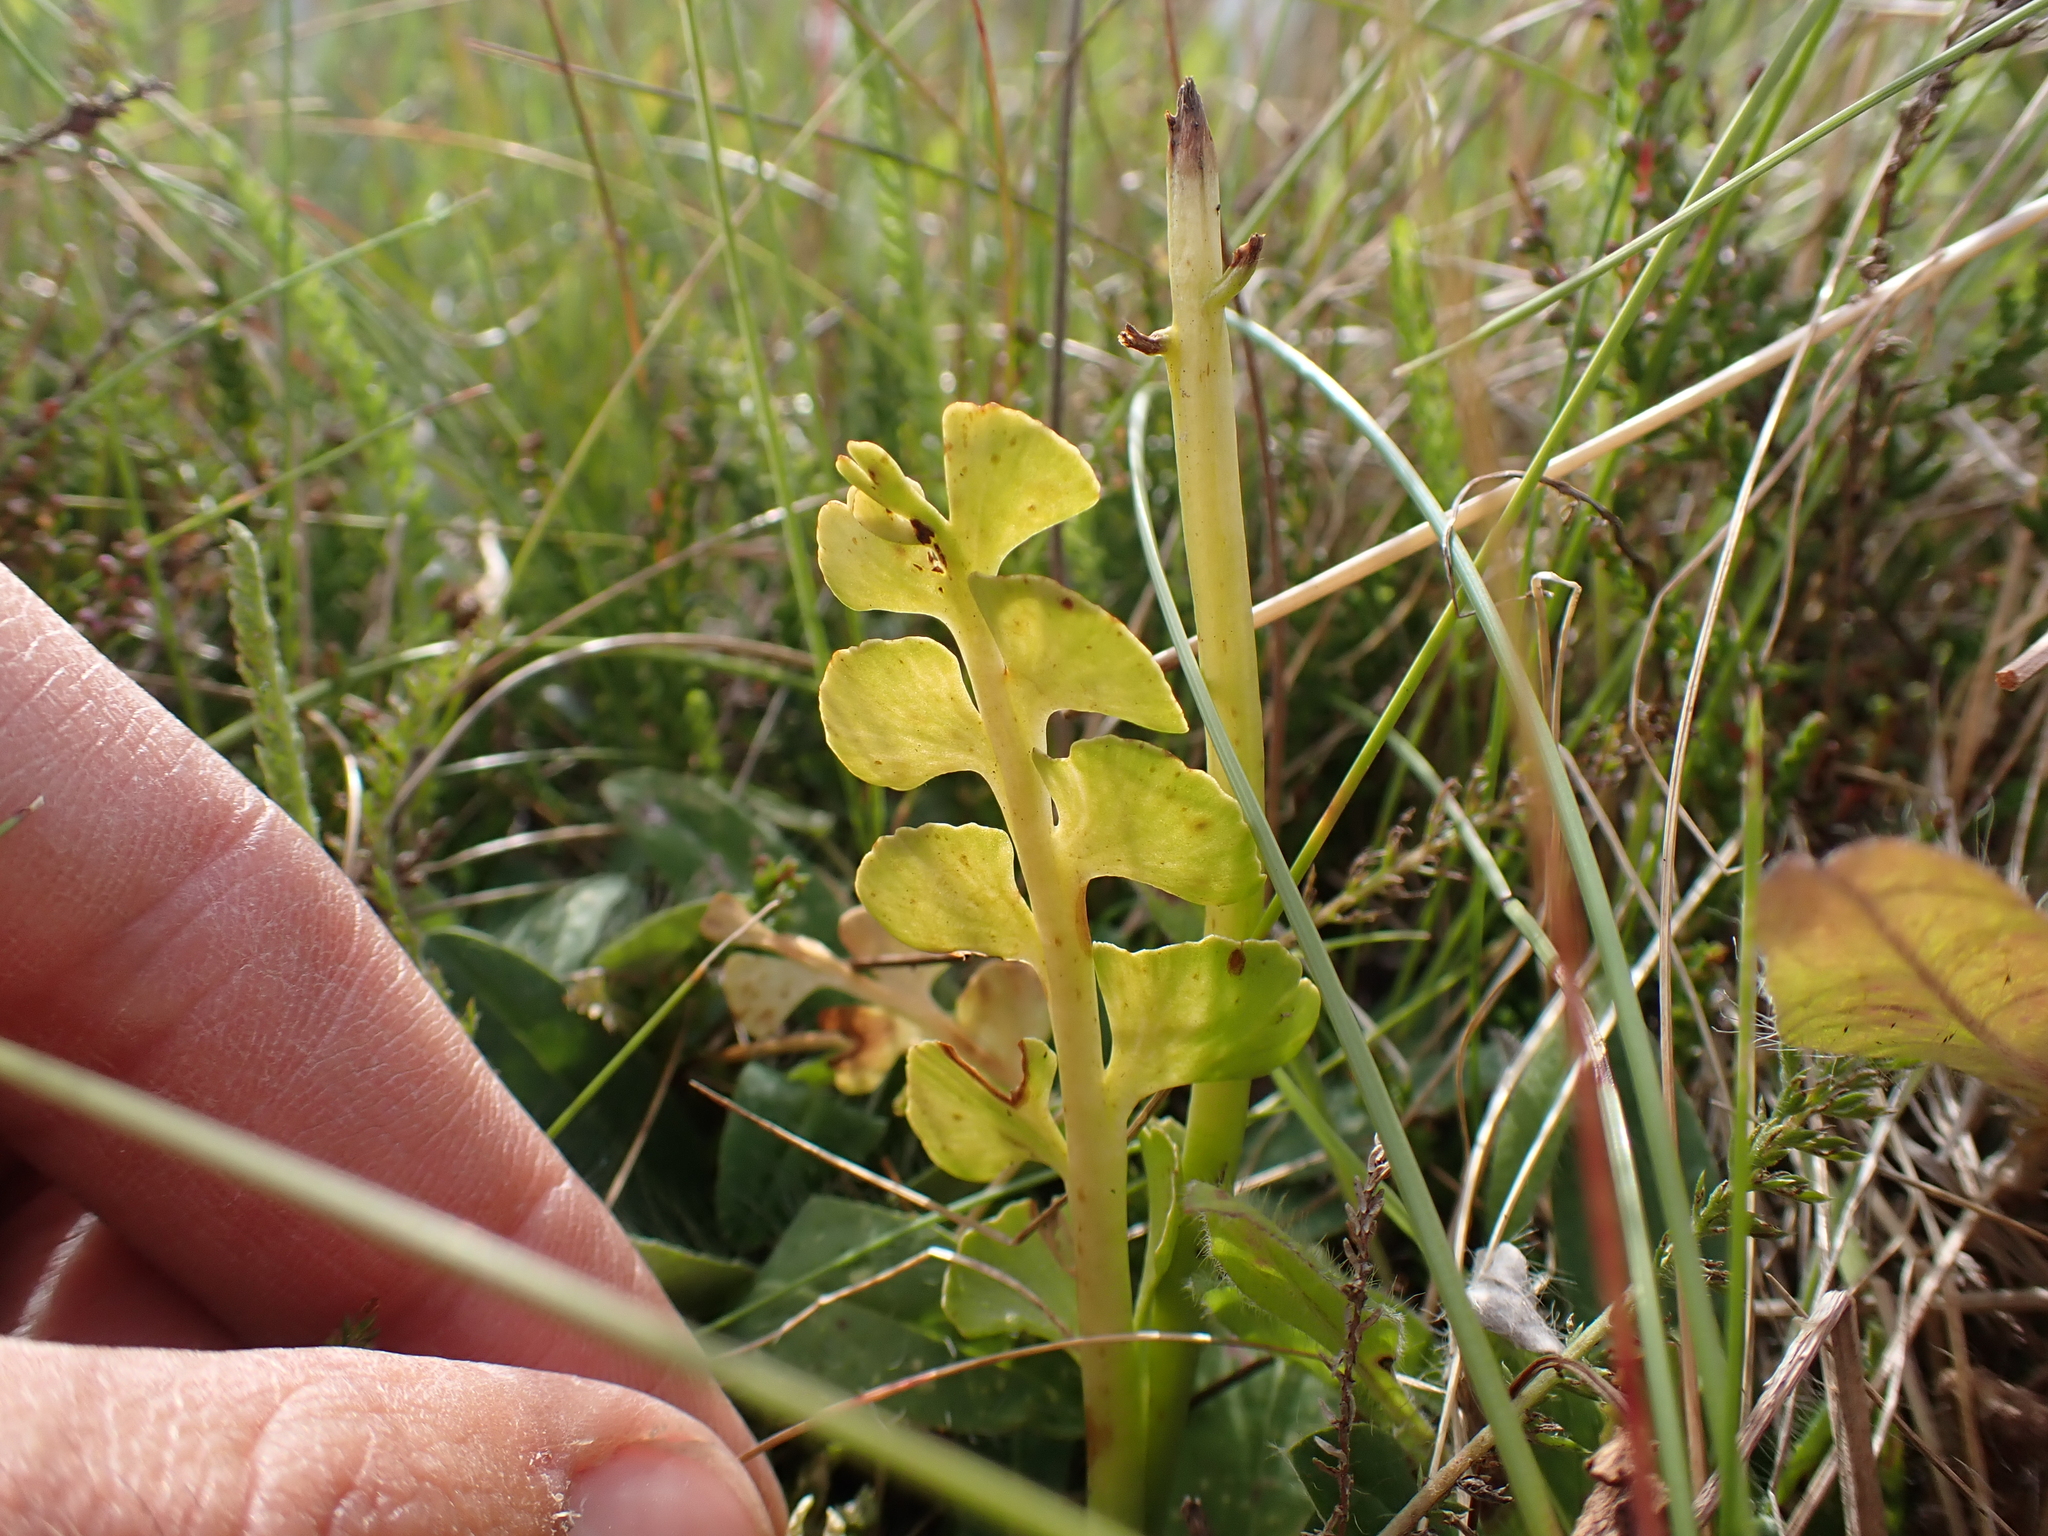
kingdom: Plantae
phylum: Tracheophyta
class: Polypodiopsida
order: Ophioglossales
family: Ophioglossaceae
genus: Botrychium
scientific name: Botrychium lunaria
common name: Moonwort
